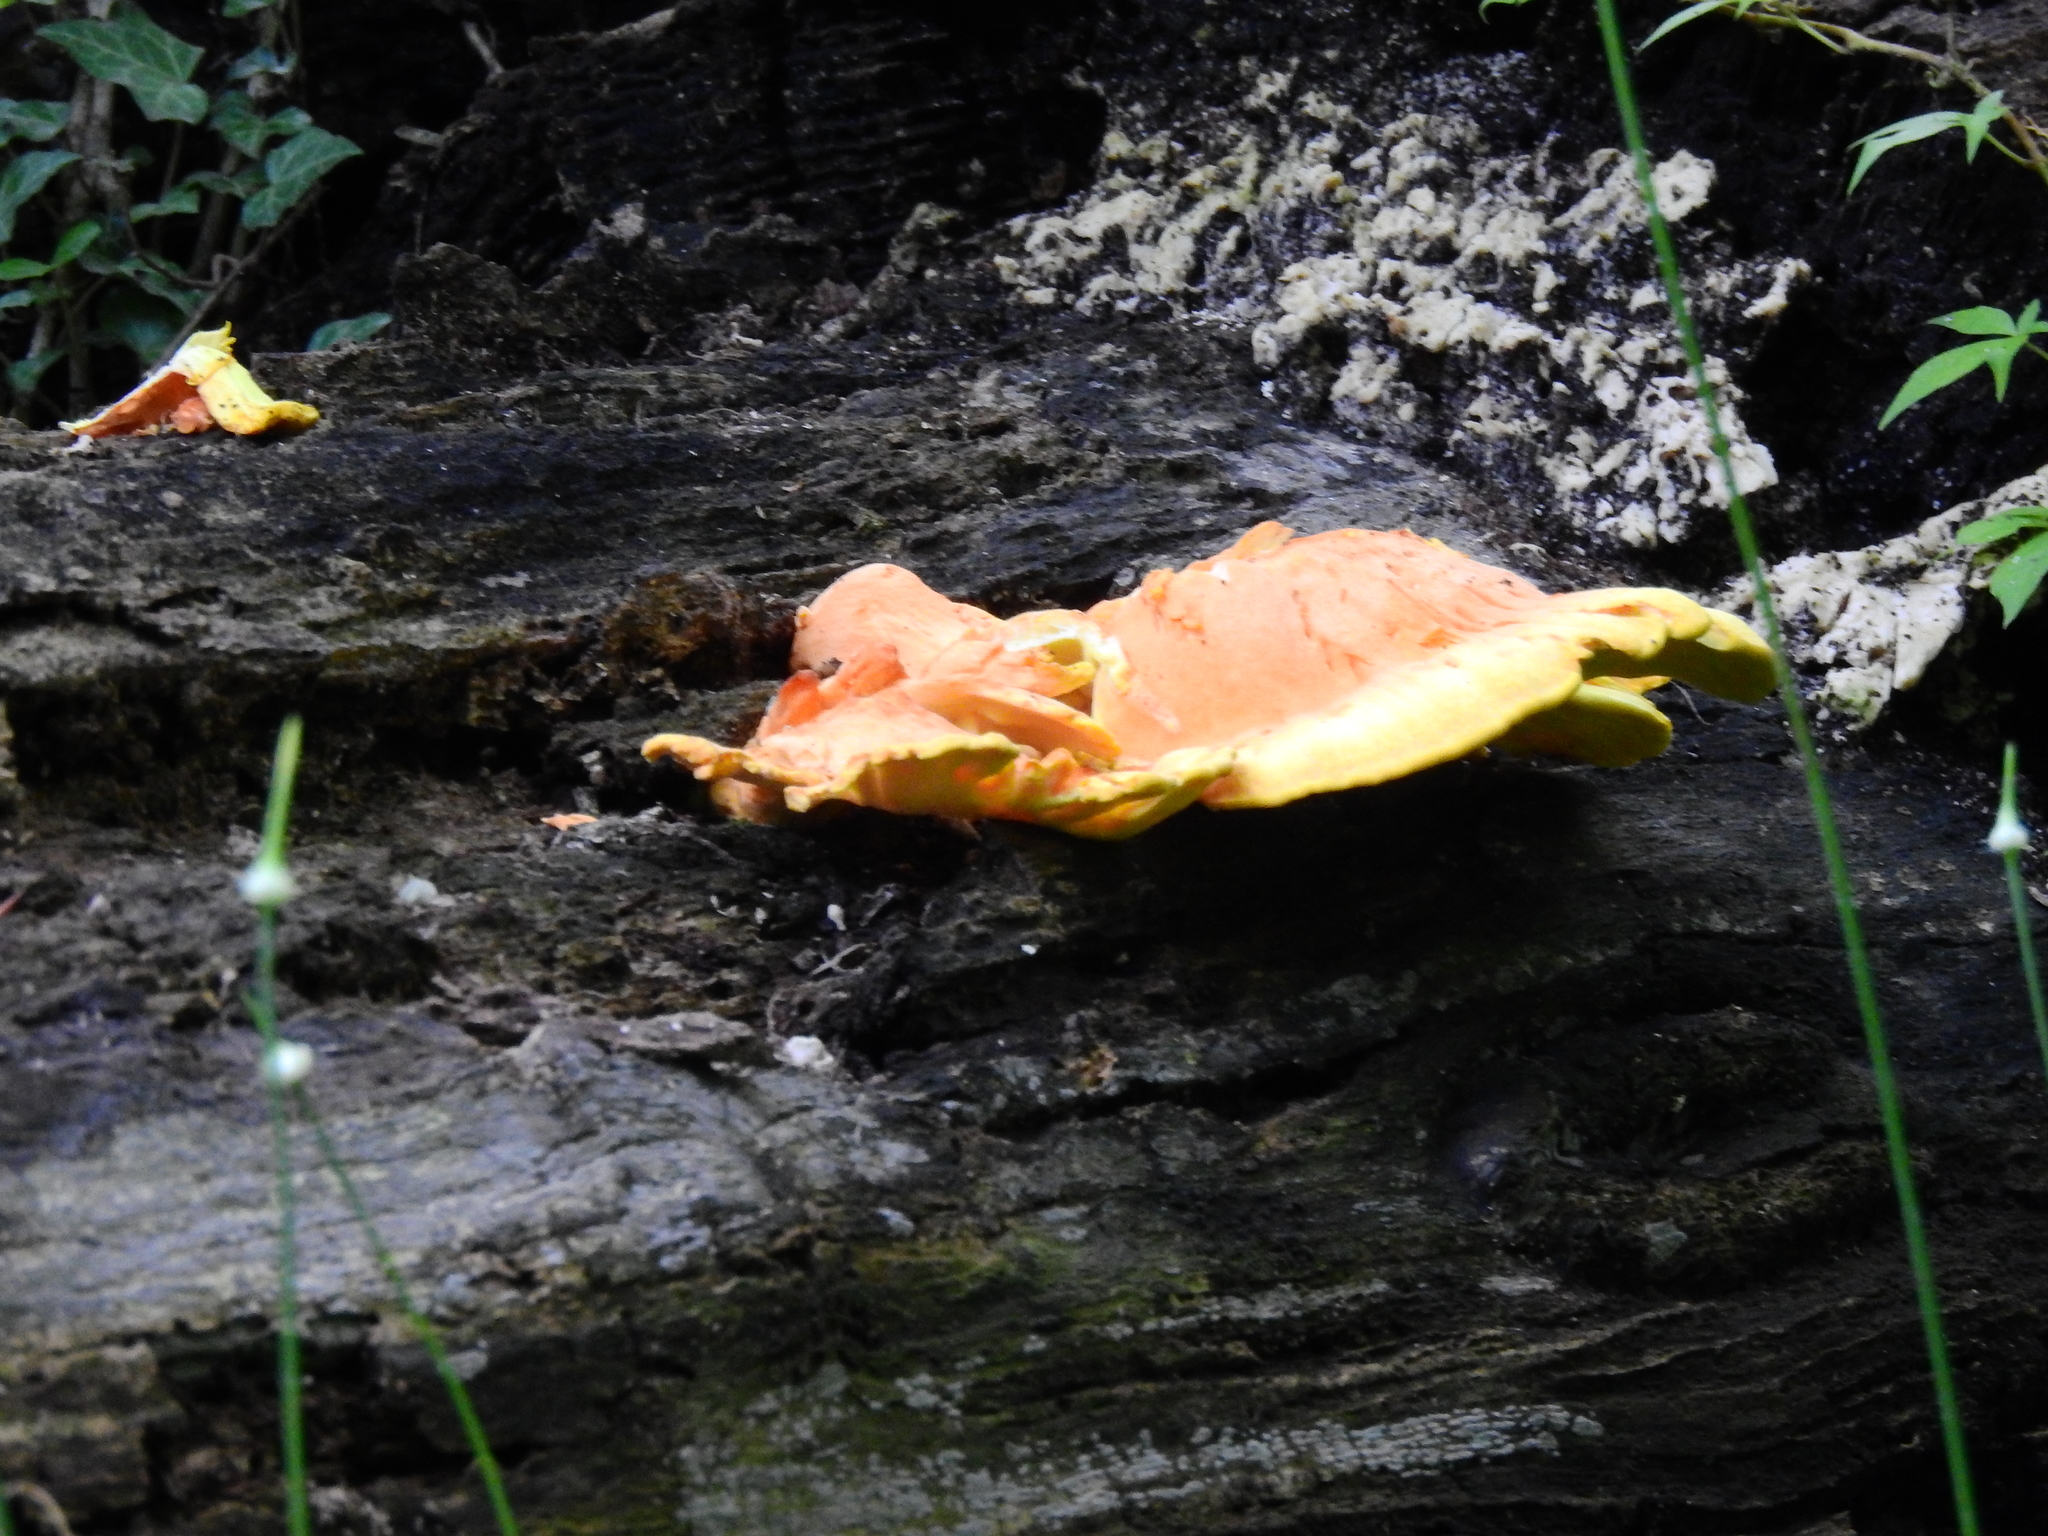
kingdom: Fungi
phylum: Basidiomycota
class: Agaricomycetes
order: Polyporales
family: Laetiporaceae
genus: Laetiporus
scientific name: Laetiporus sulphureus
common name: Chicken of the woods
